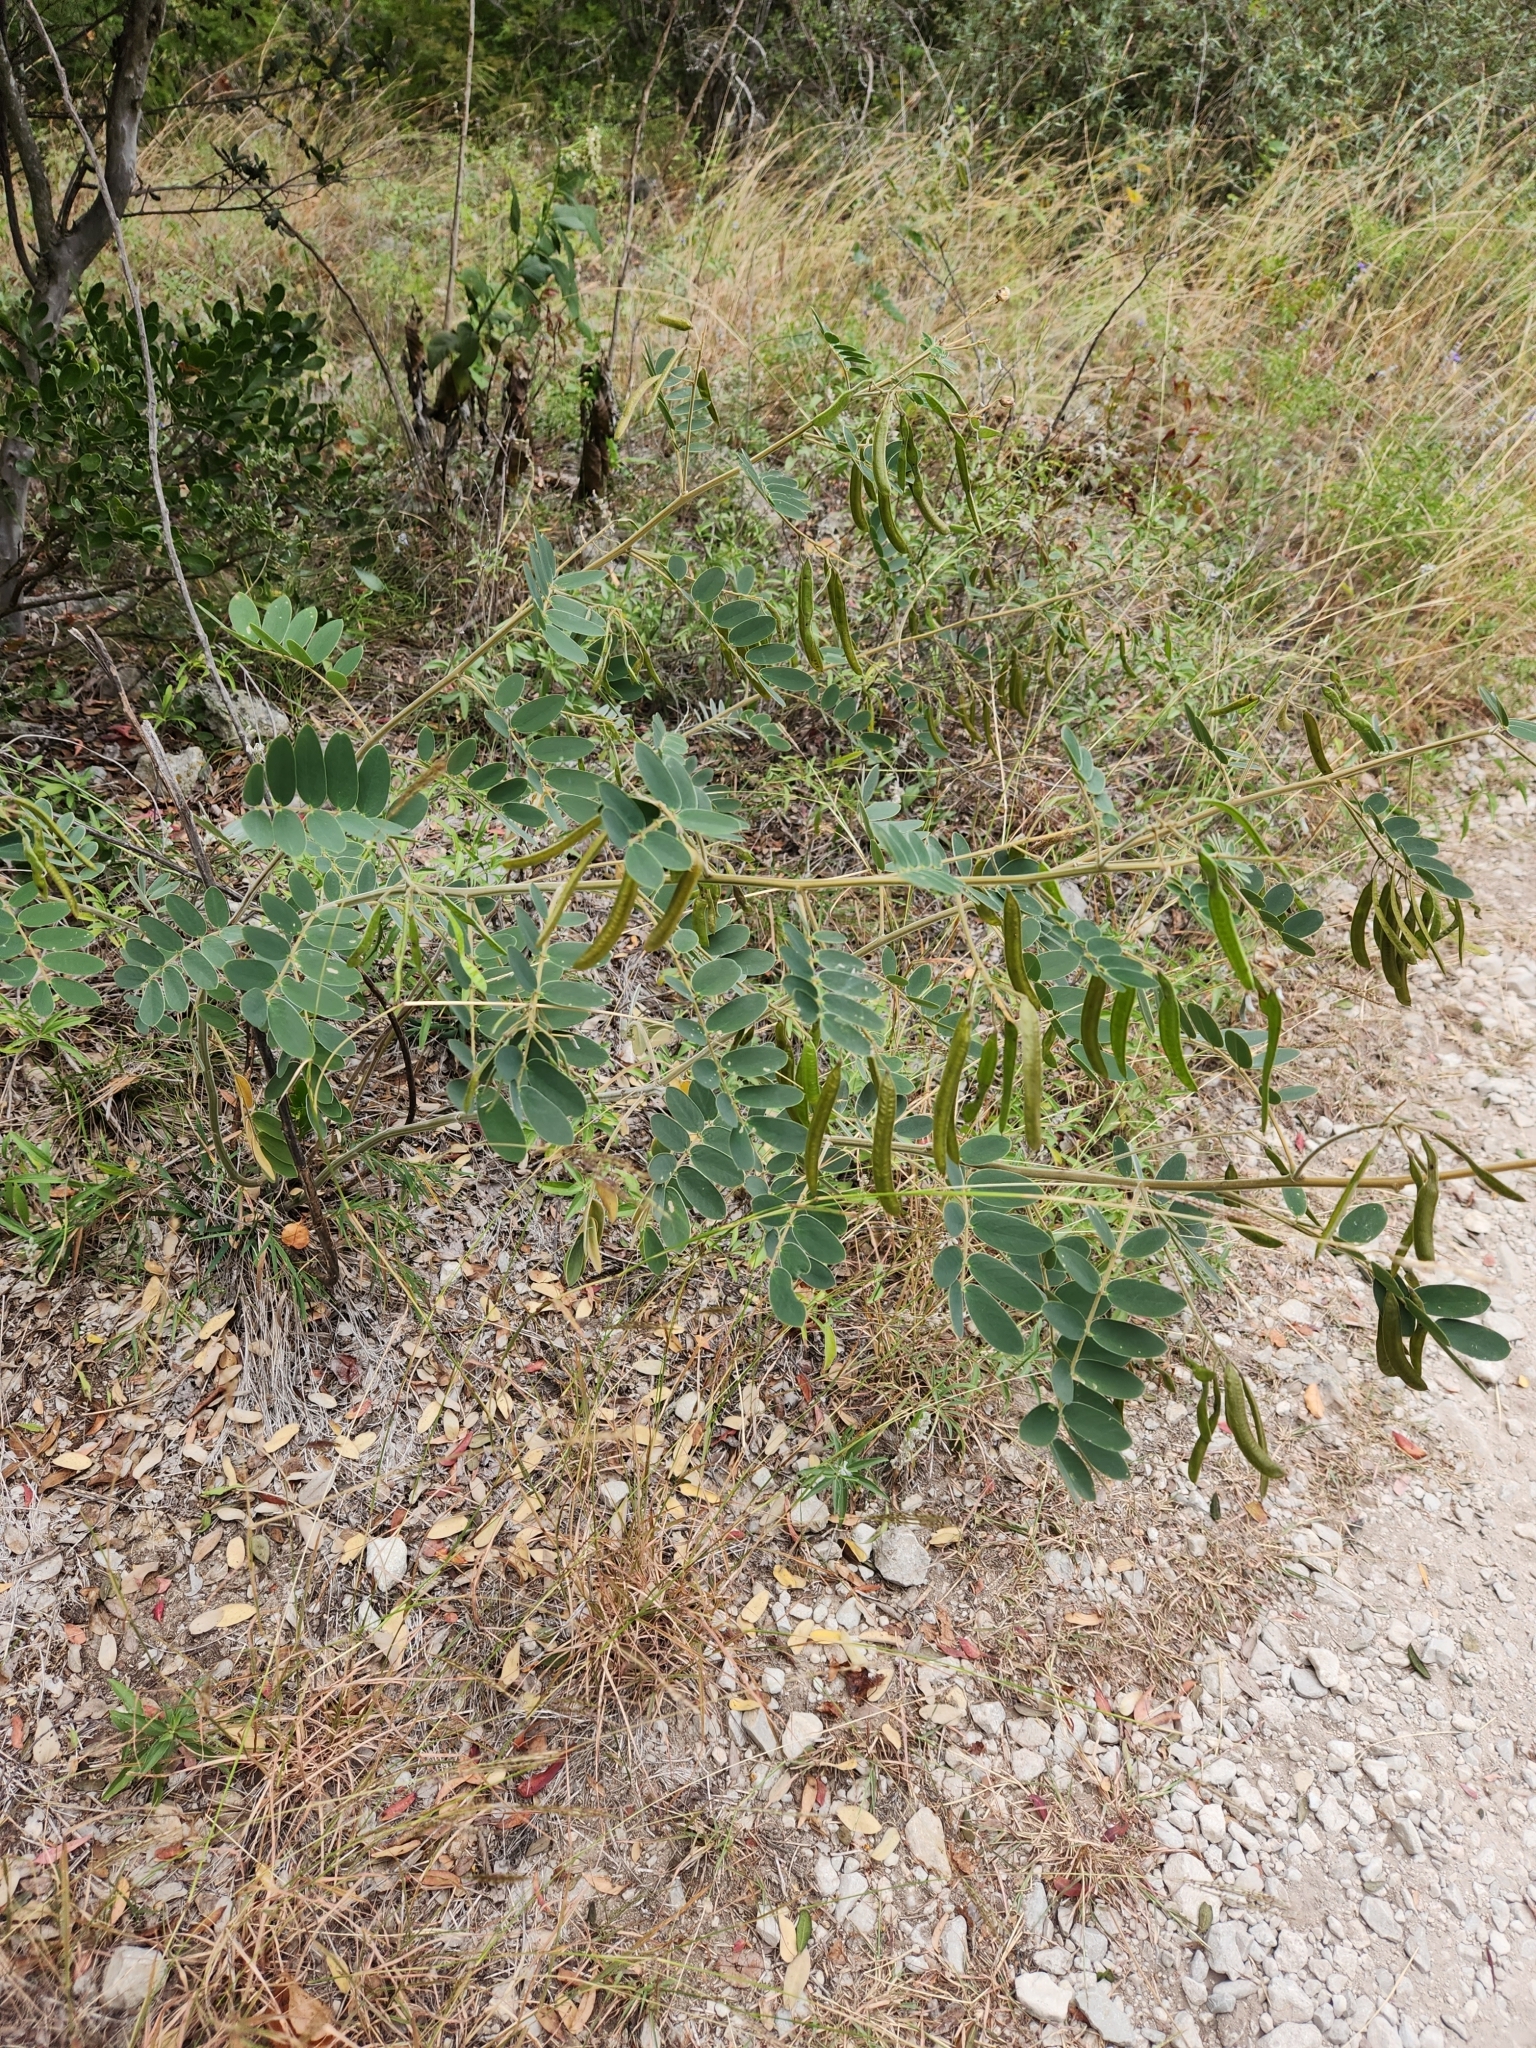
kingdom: Plantae
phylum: Tracheophyta
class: Magnoliopsida
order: Fabales
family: Fabaceae
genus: Senna
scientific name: Senna lindheimeriana
